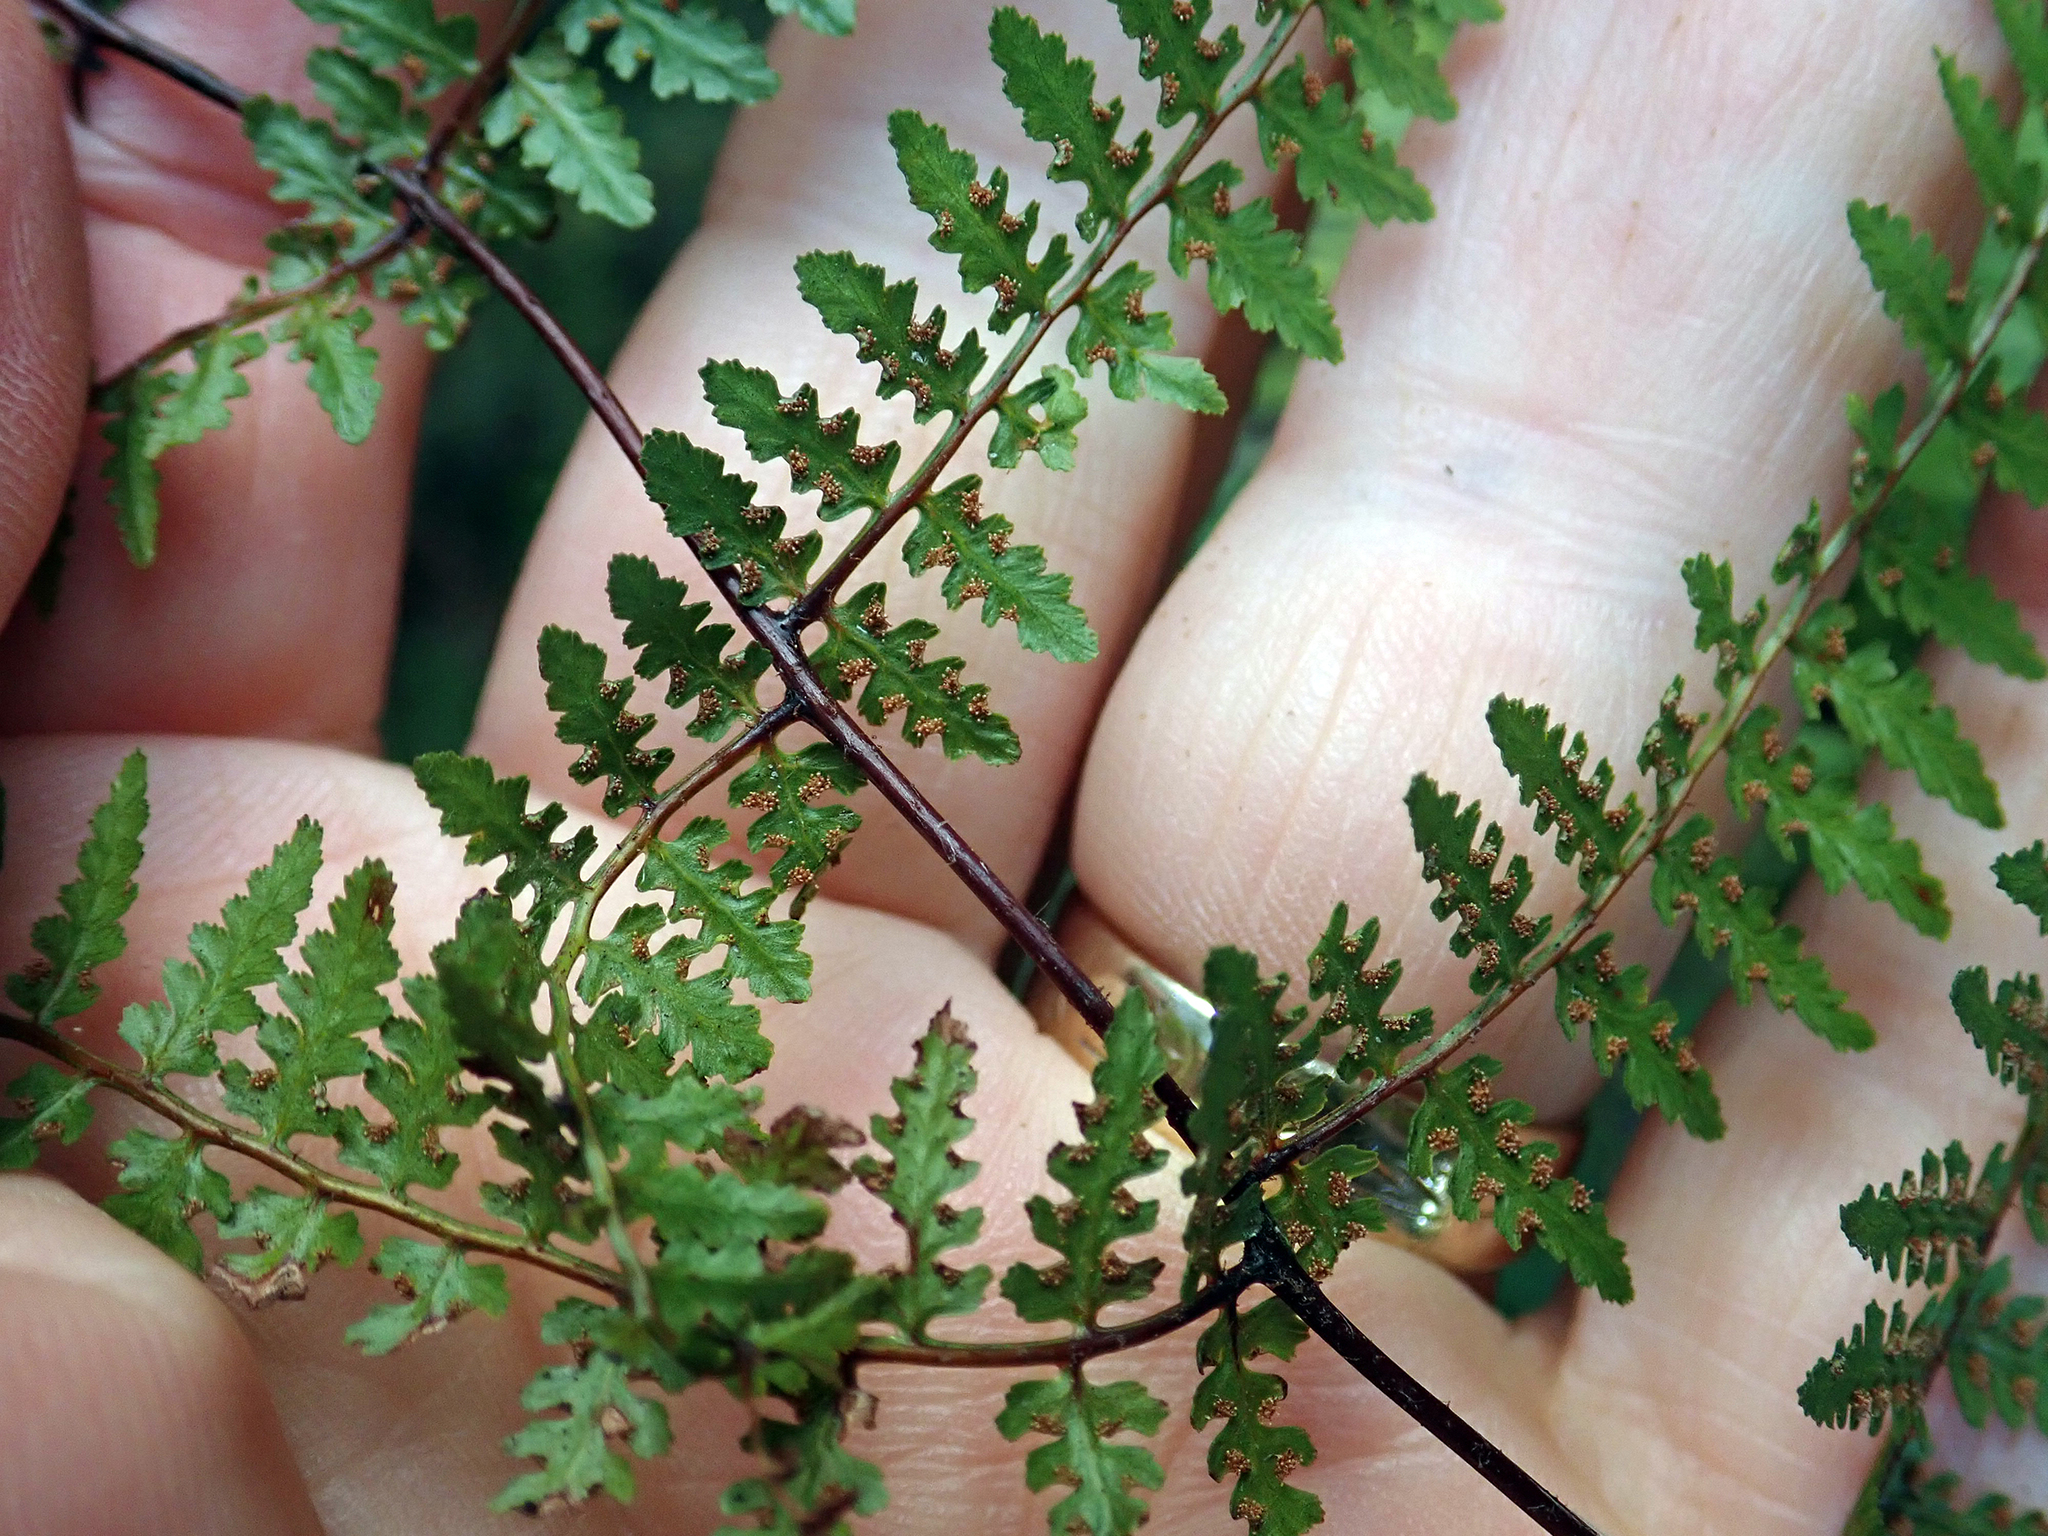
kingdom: Plantae
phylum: Tracheophyta
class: Polypodiopsida
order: Polypodiales
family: Dennstaedtiaceae
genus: Hiya
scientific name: Hiya distans
